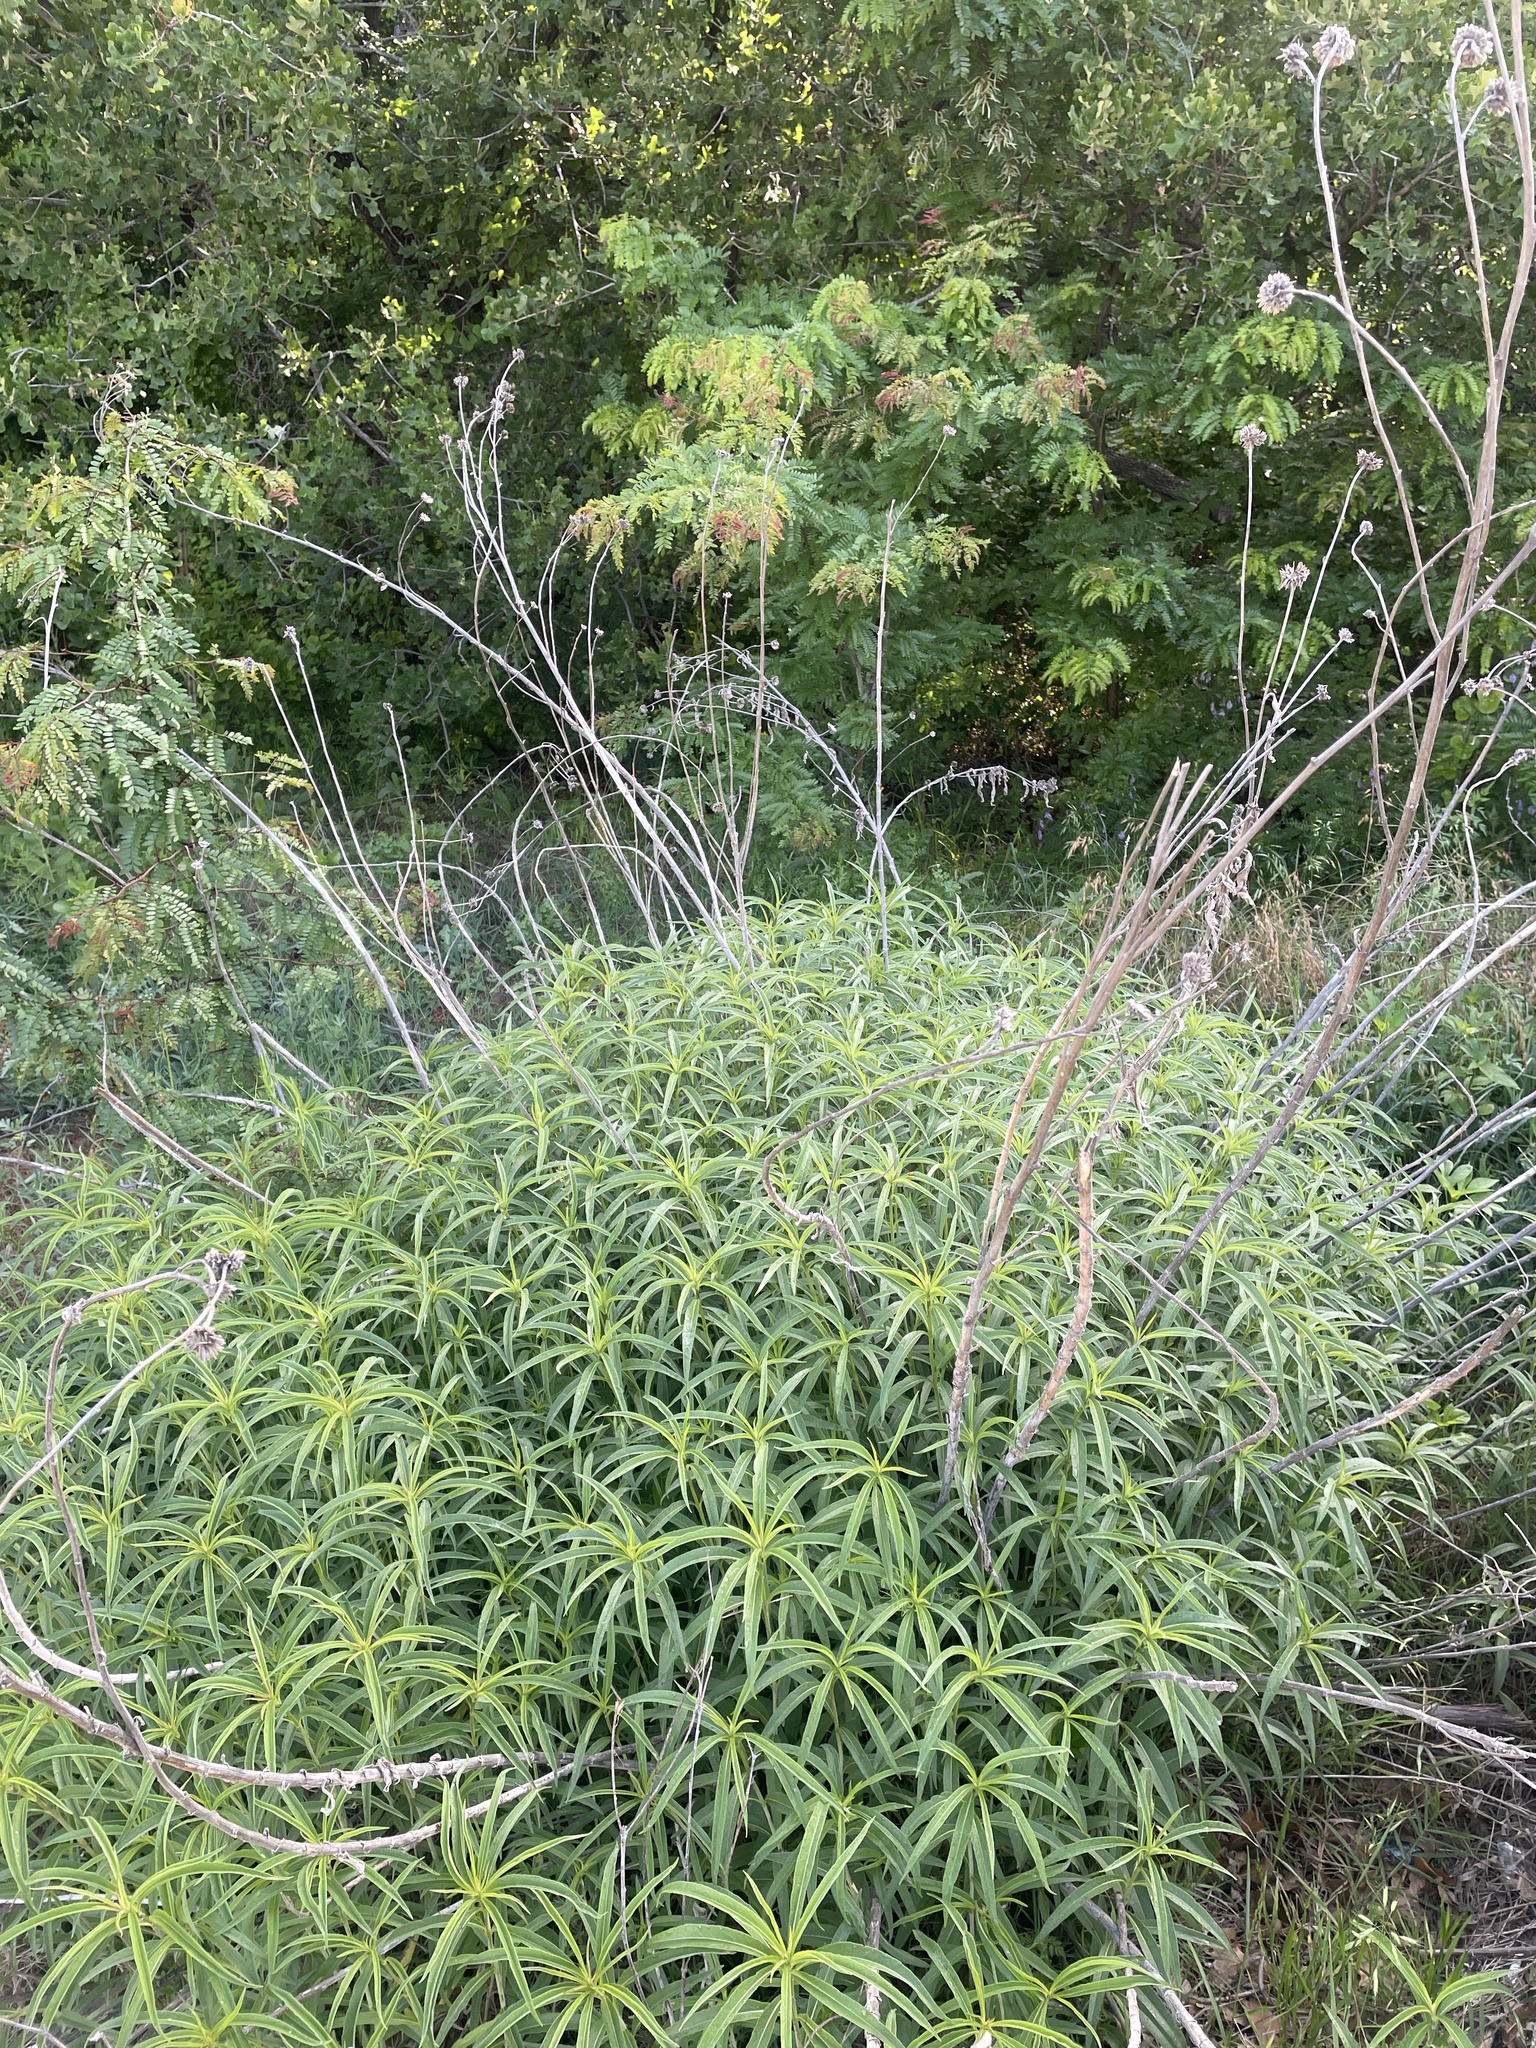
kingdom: Plantae
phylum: Tracheophyta
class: Magnoliopsida
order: Asterales
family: Asteraceae
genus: Helianthus
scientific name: Helianthus maximiliani
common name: Maximilian's sunflower
